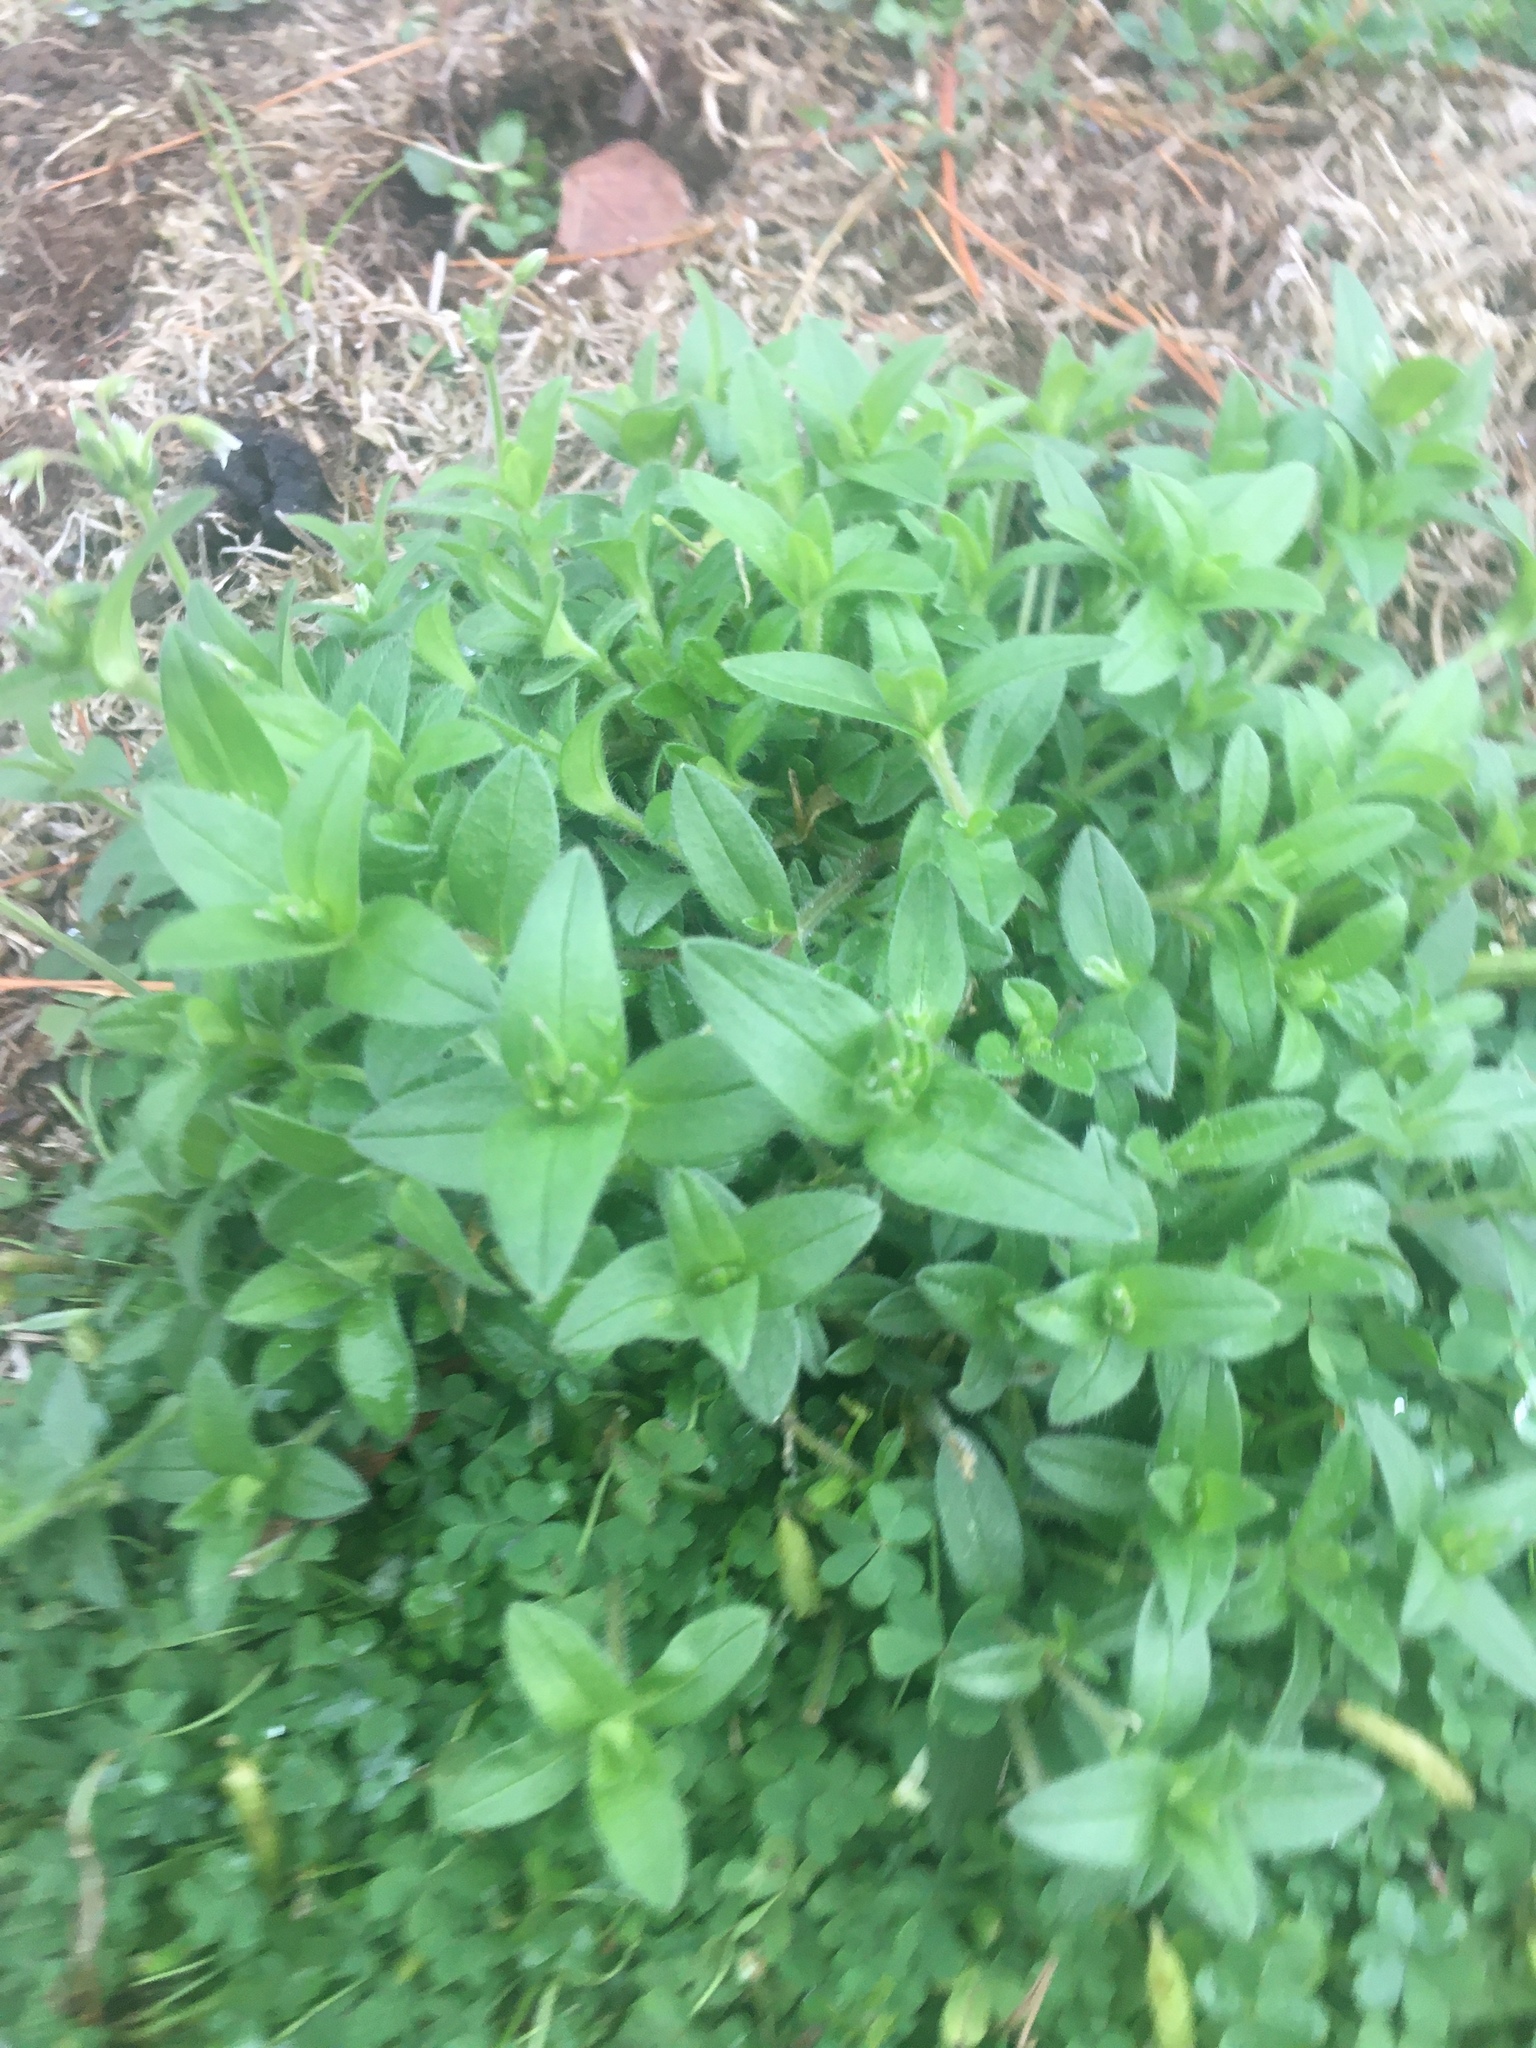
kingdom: Plantae
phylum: Tracheophyta
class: Magnoliopsida
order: Caryophyllales
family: Caryophyllaceae
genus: Cerastium
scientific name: Cerastium fontanum
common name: Common mouse-ear
